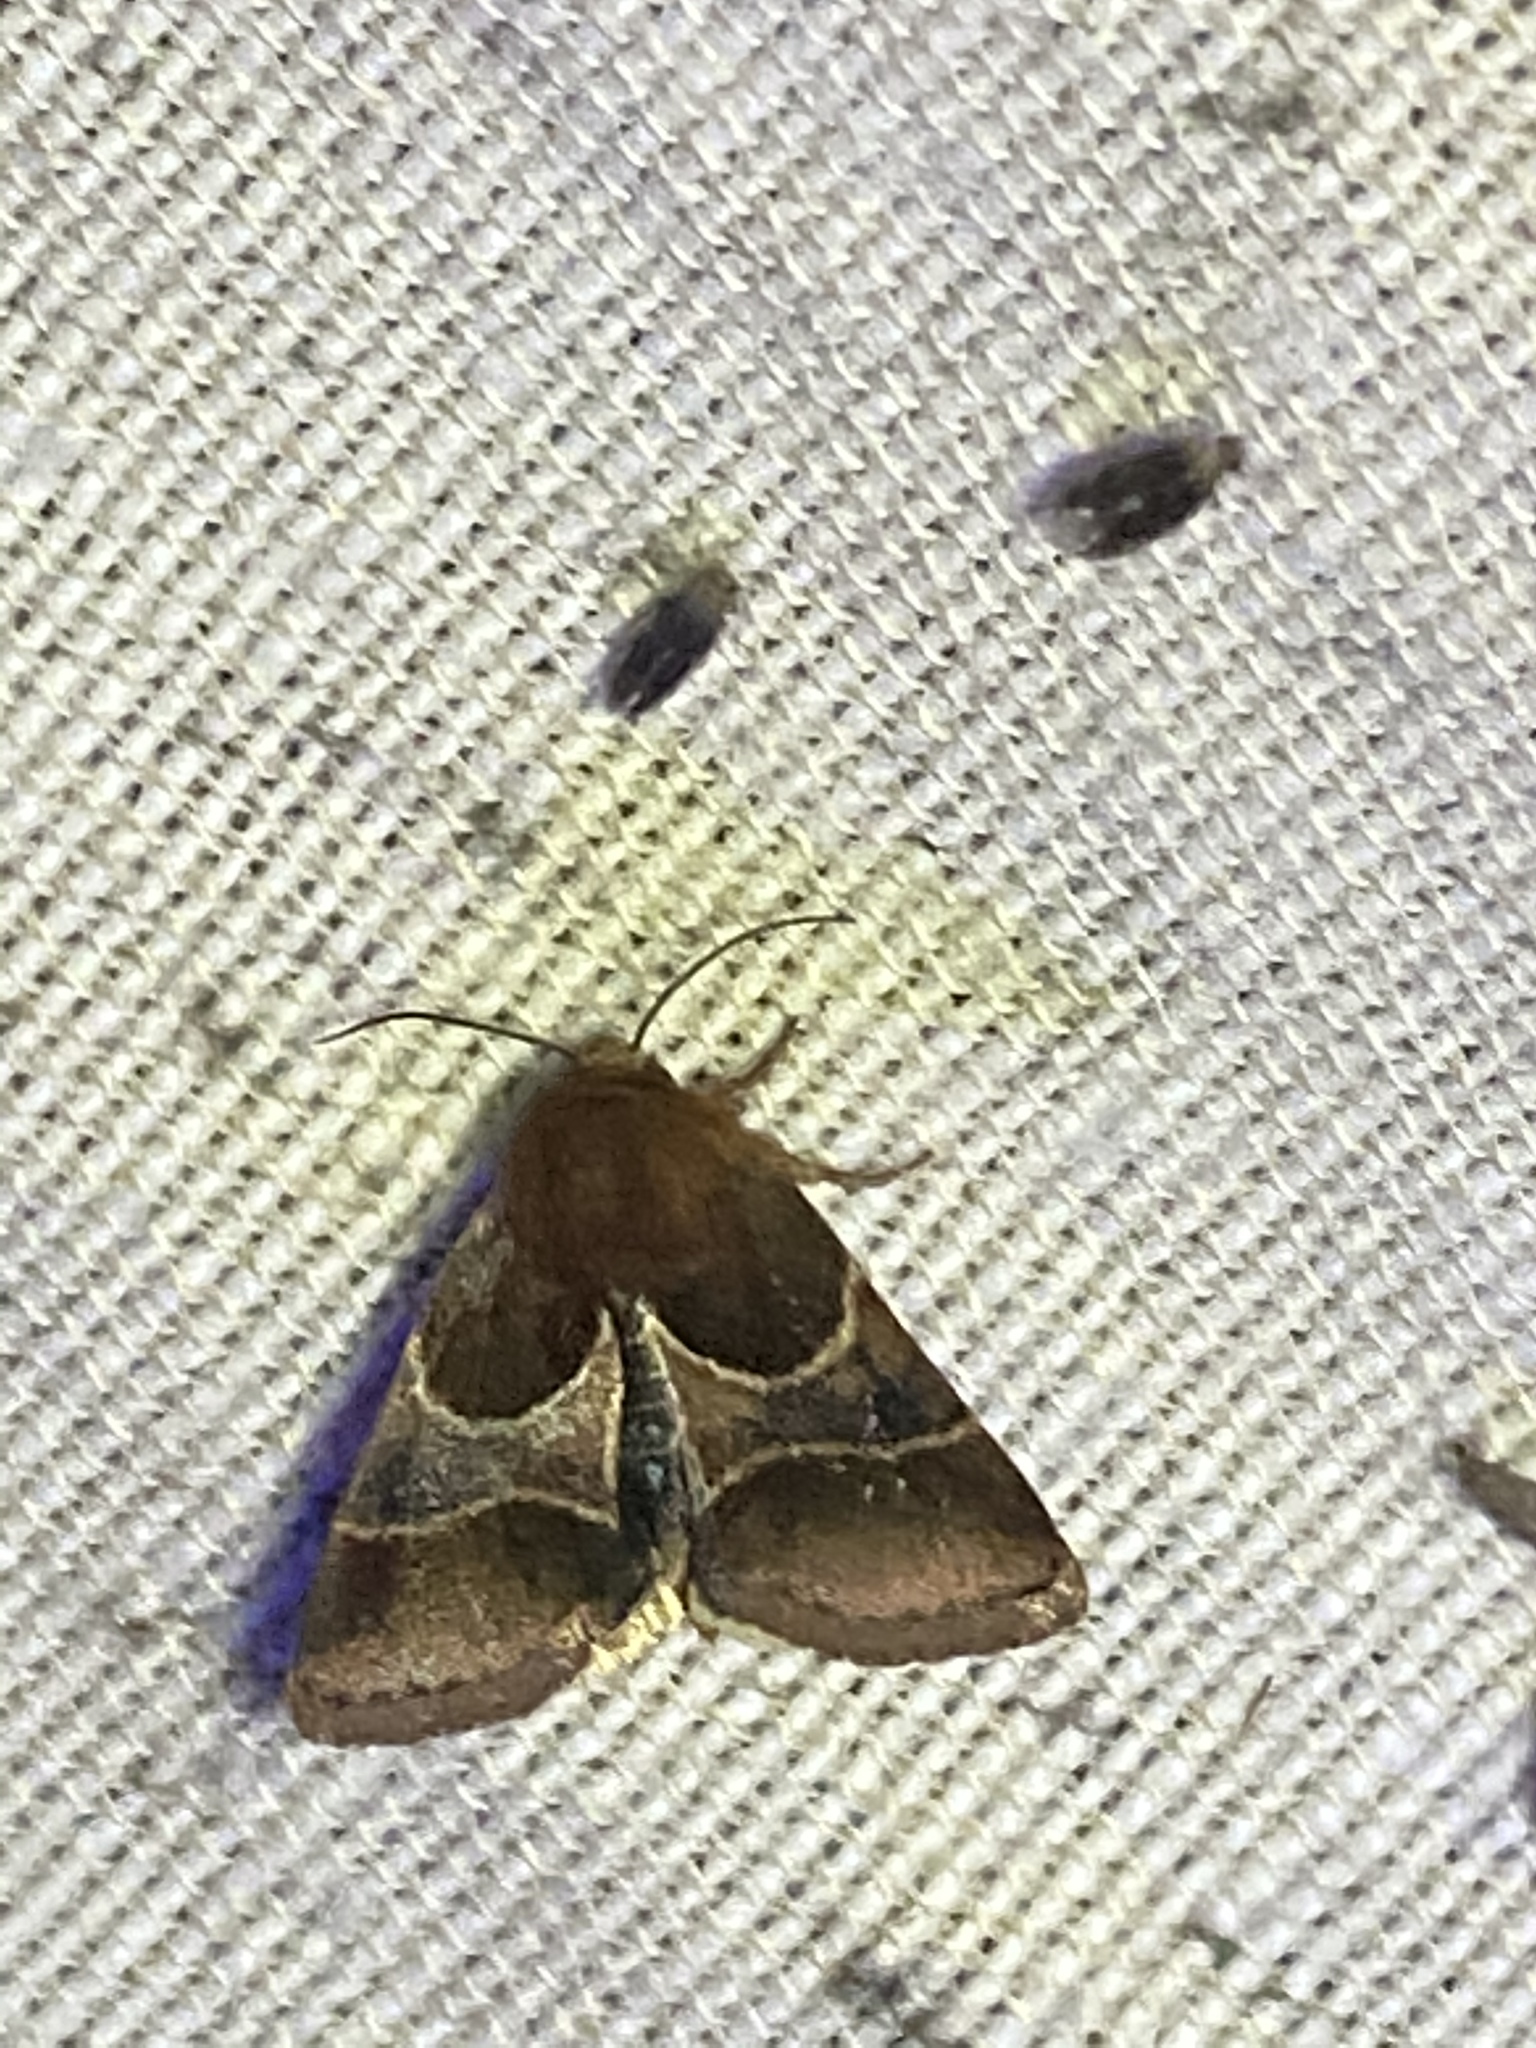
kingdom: Animalia
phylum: Arthropoda
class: Insecta
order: Lepidoptera
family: Noctuidae
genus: Schinia
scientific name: Schinia arcigera
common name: Arcigera flower moth
